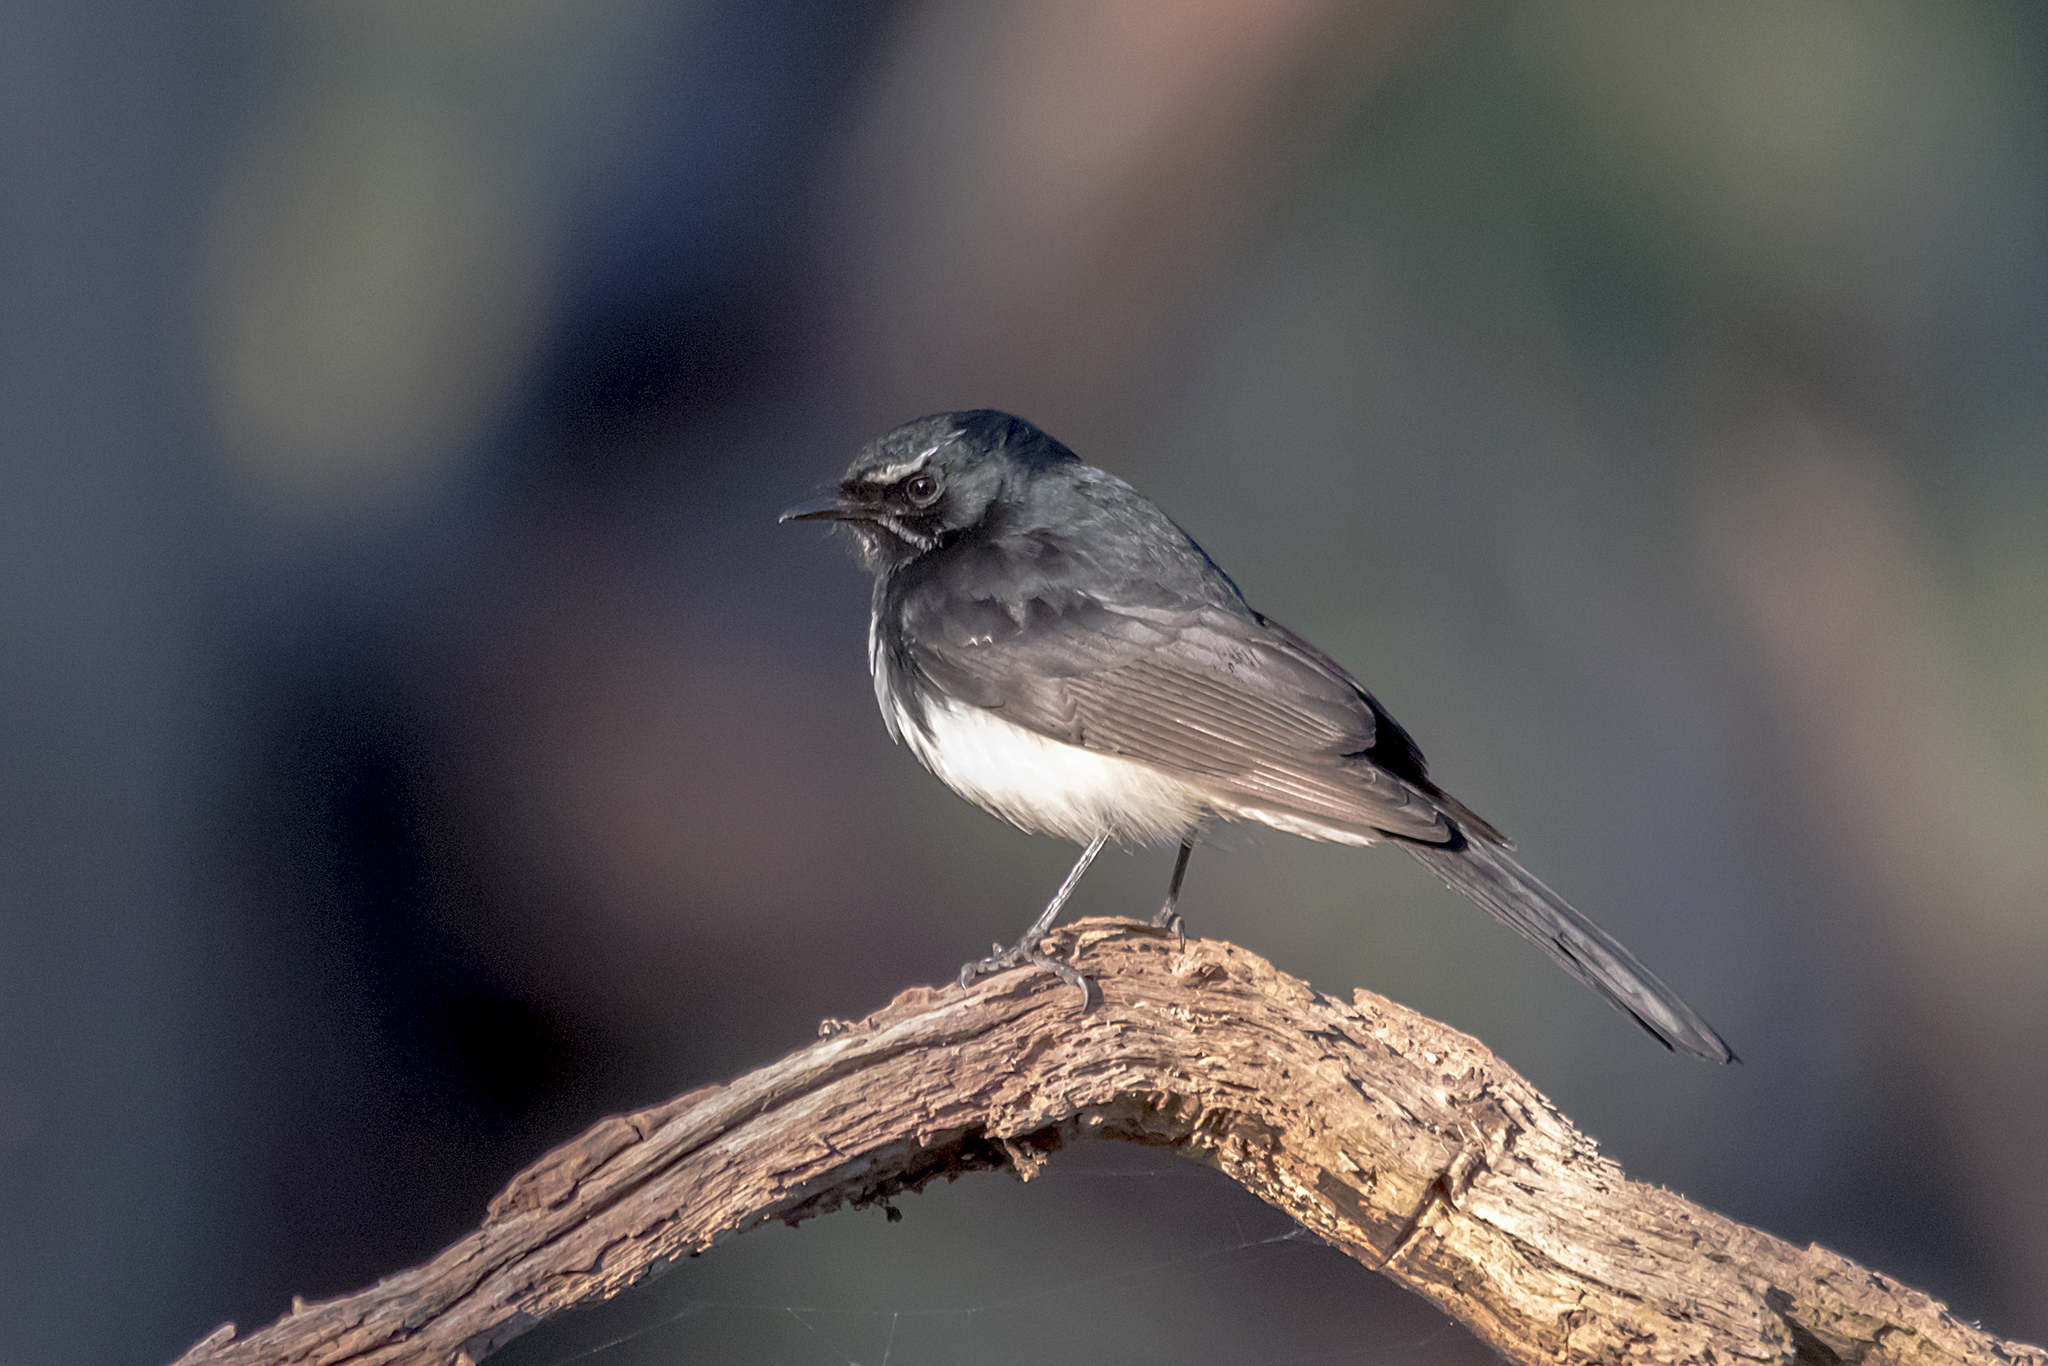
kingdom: Animalia
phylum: Chordata
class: Aves
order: Passeriformes
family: Rhipiduridae
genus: Rhipidura
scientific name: Rhipidura leucophrys
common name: Willie wagtail
